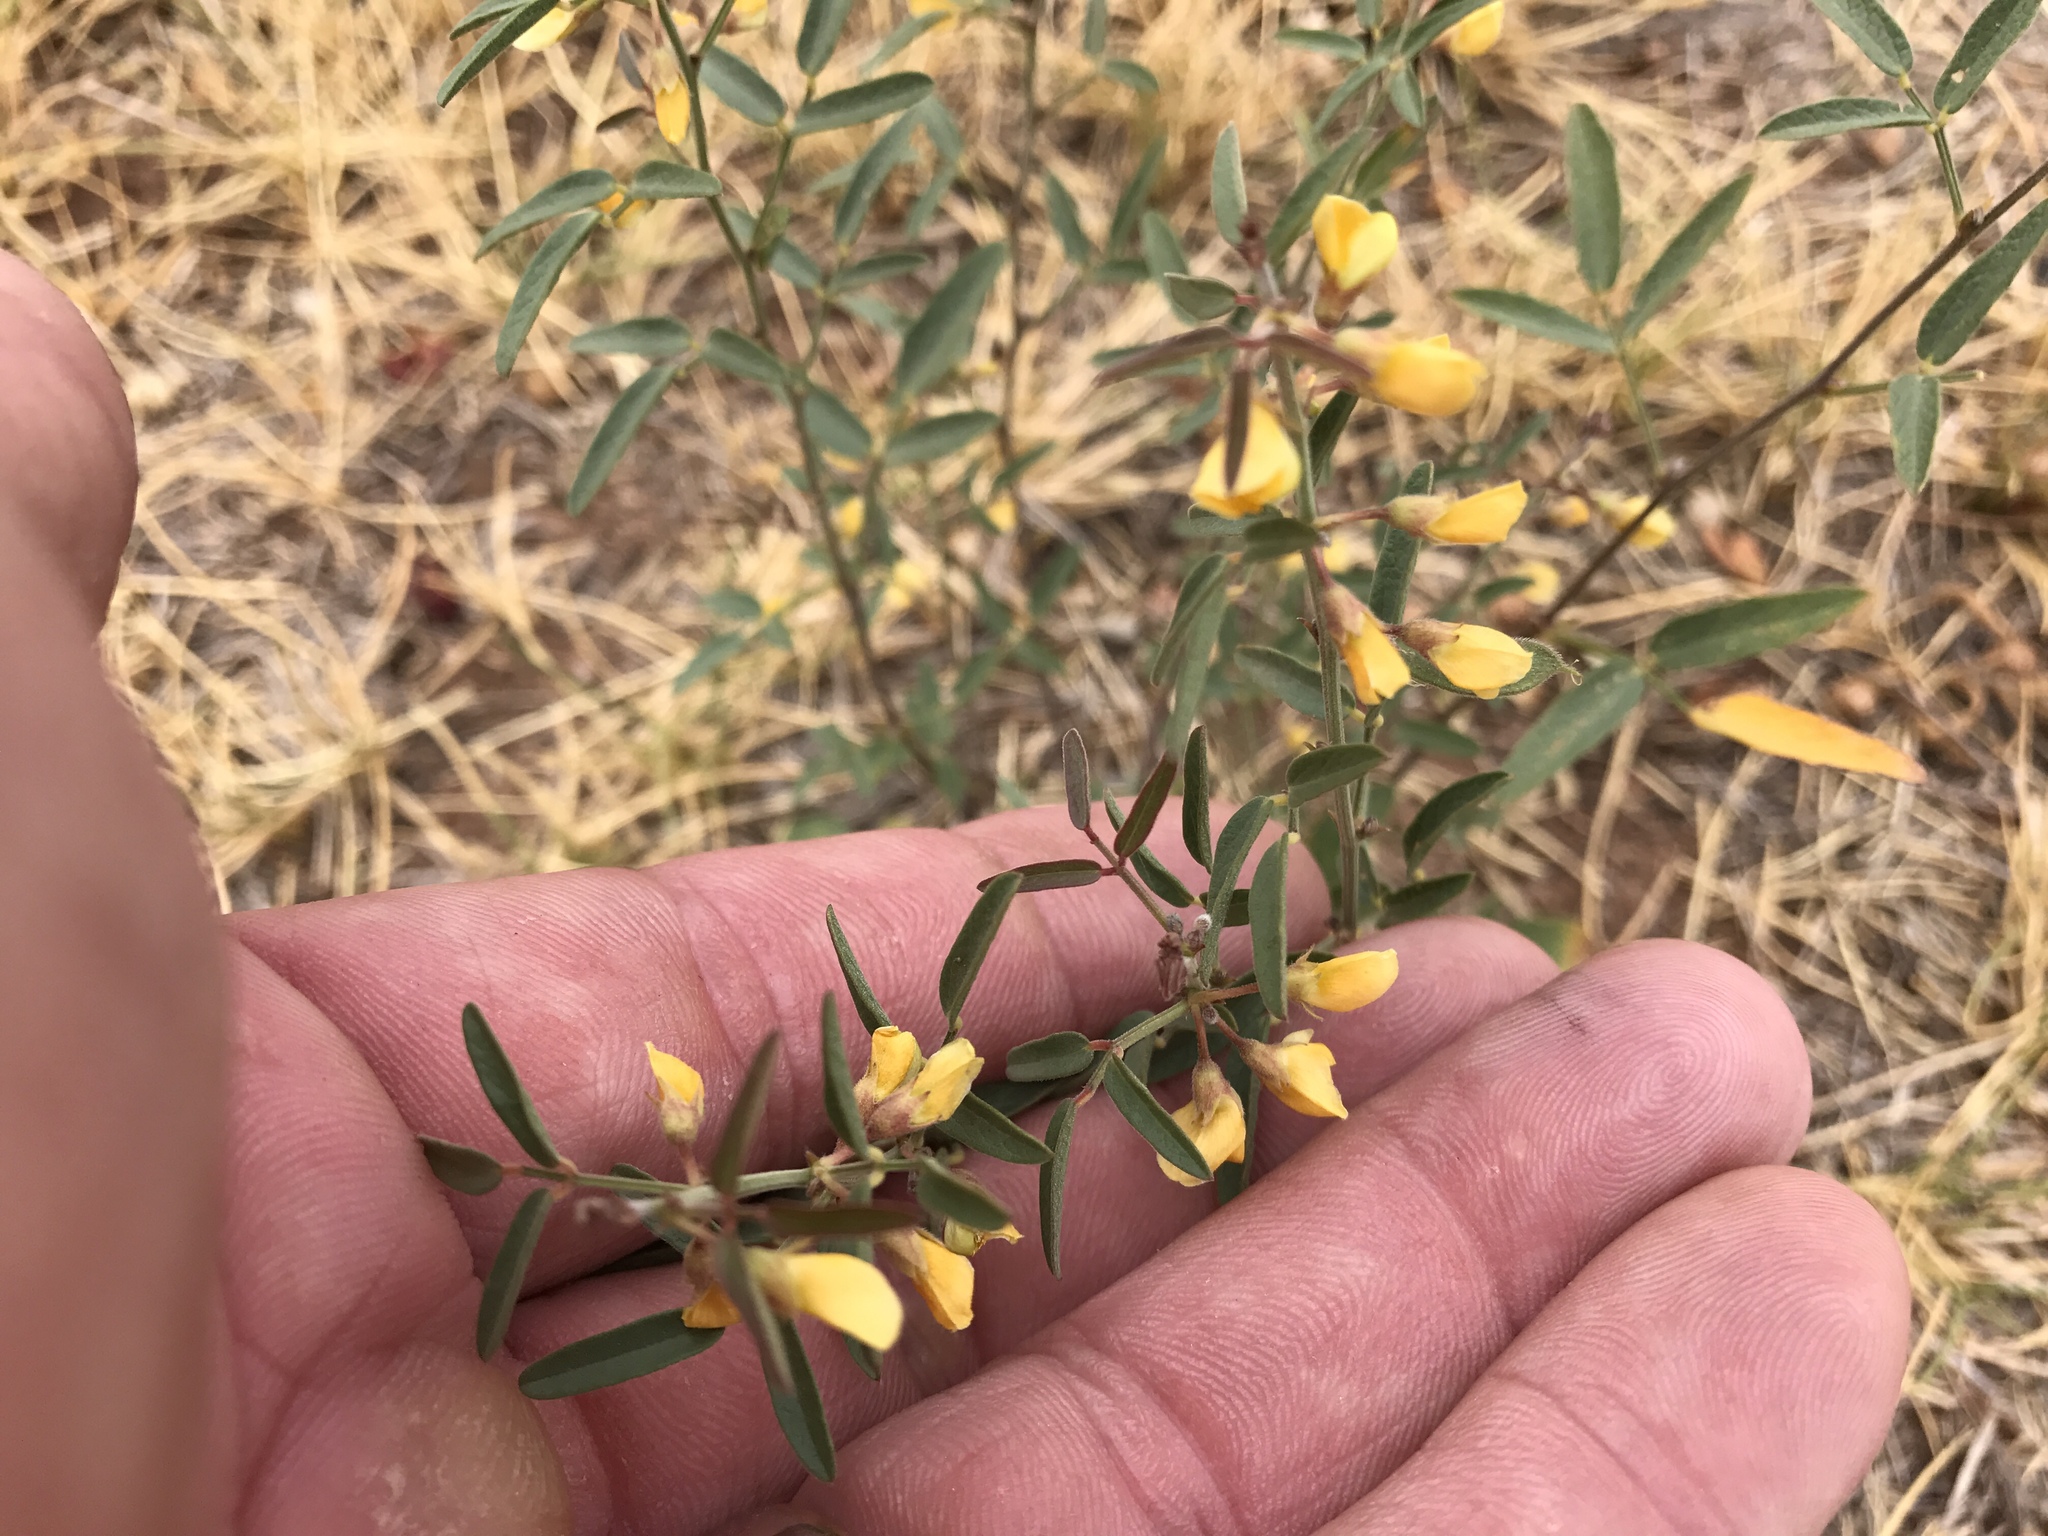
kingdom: Plantae
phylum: Tracheophyta
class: Magnoliopsida
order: Fabales
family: Fabaceae
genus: Rhynchosia
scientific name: Rhynchosia senna
